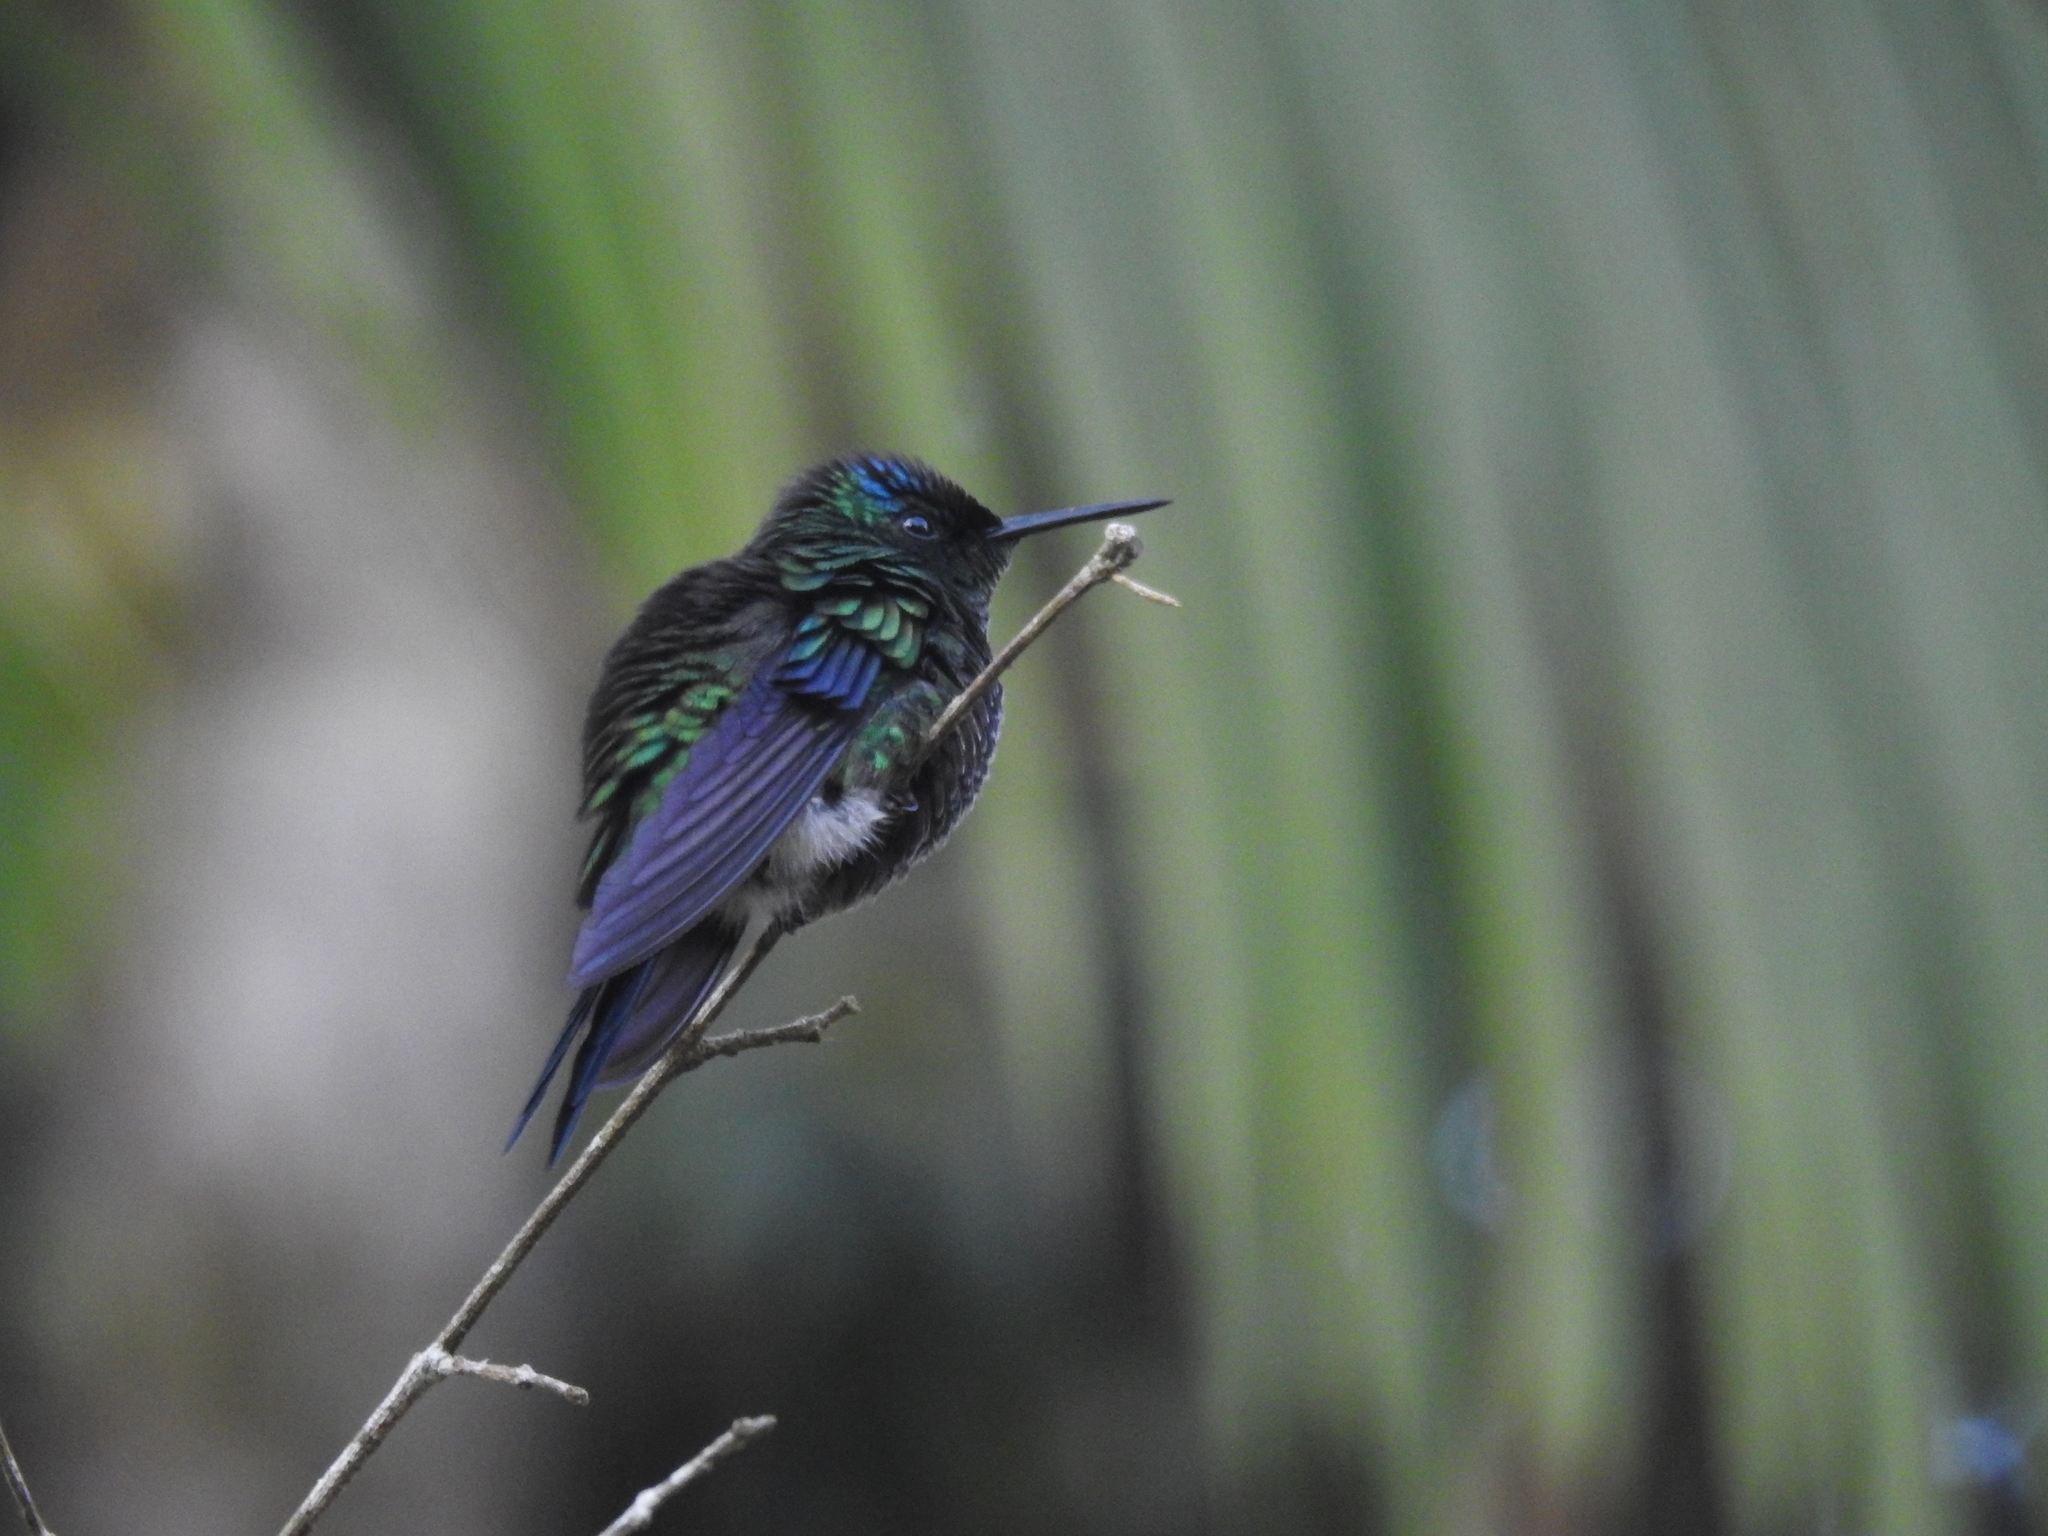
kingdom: Animalia
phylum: Chordata
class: Aves
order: Apodiformes
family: Trochilidae
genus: Thalurania
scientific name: Thalurania glaucopis
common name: Violet-capped woodnymph
